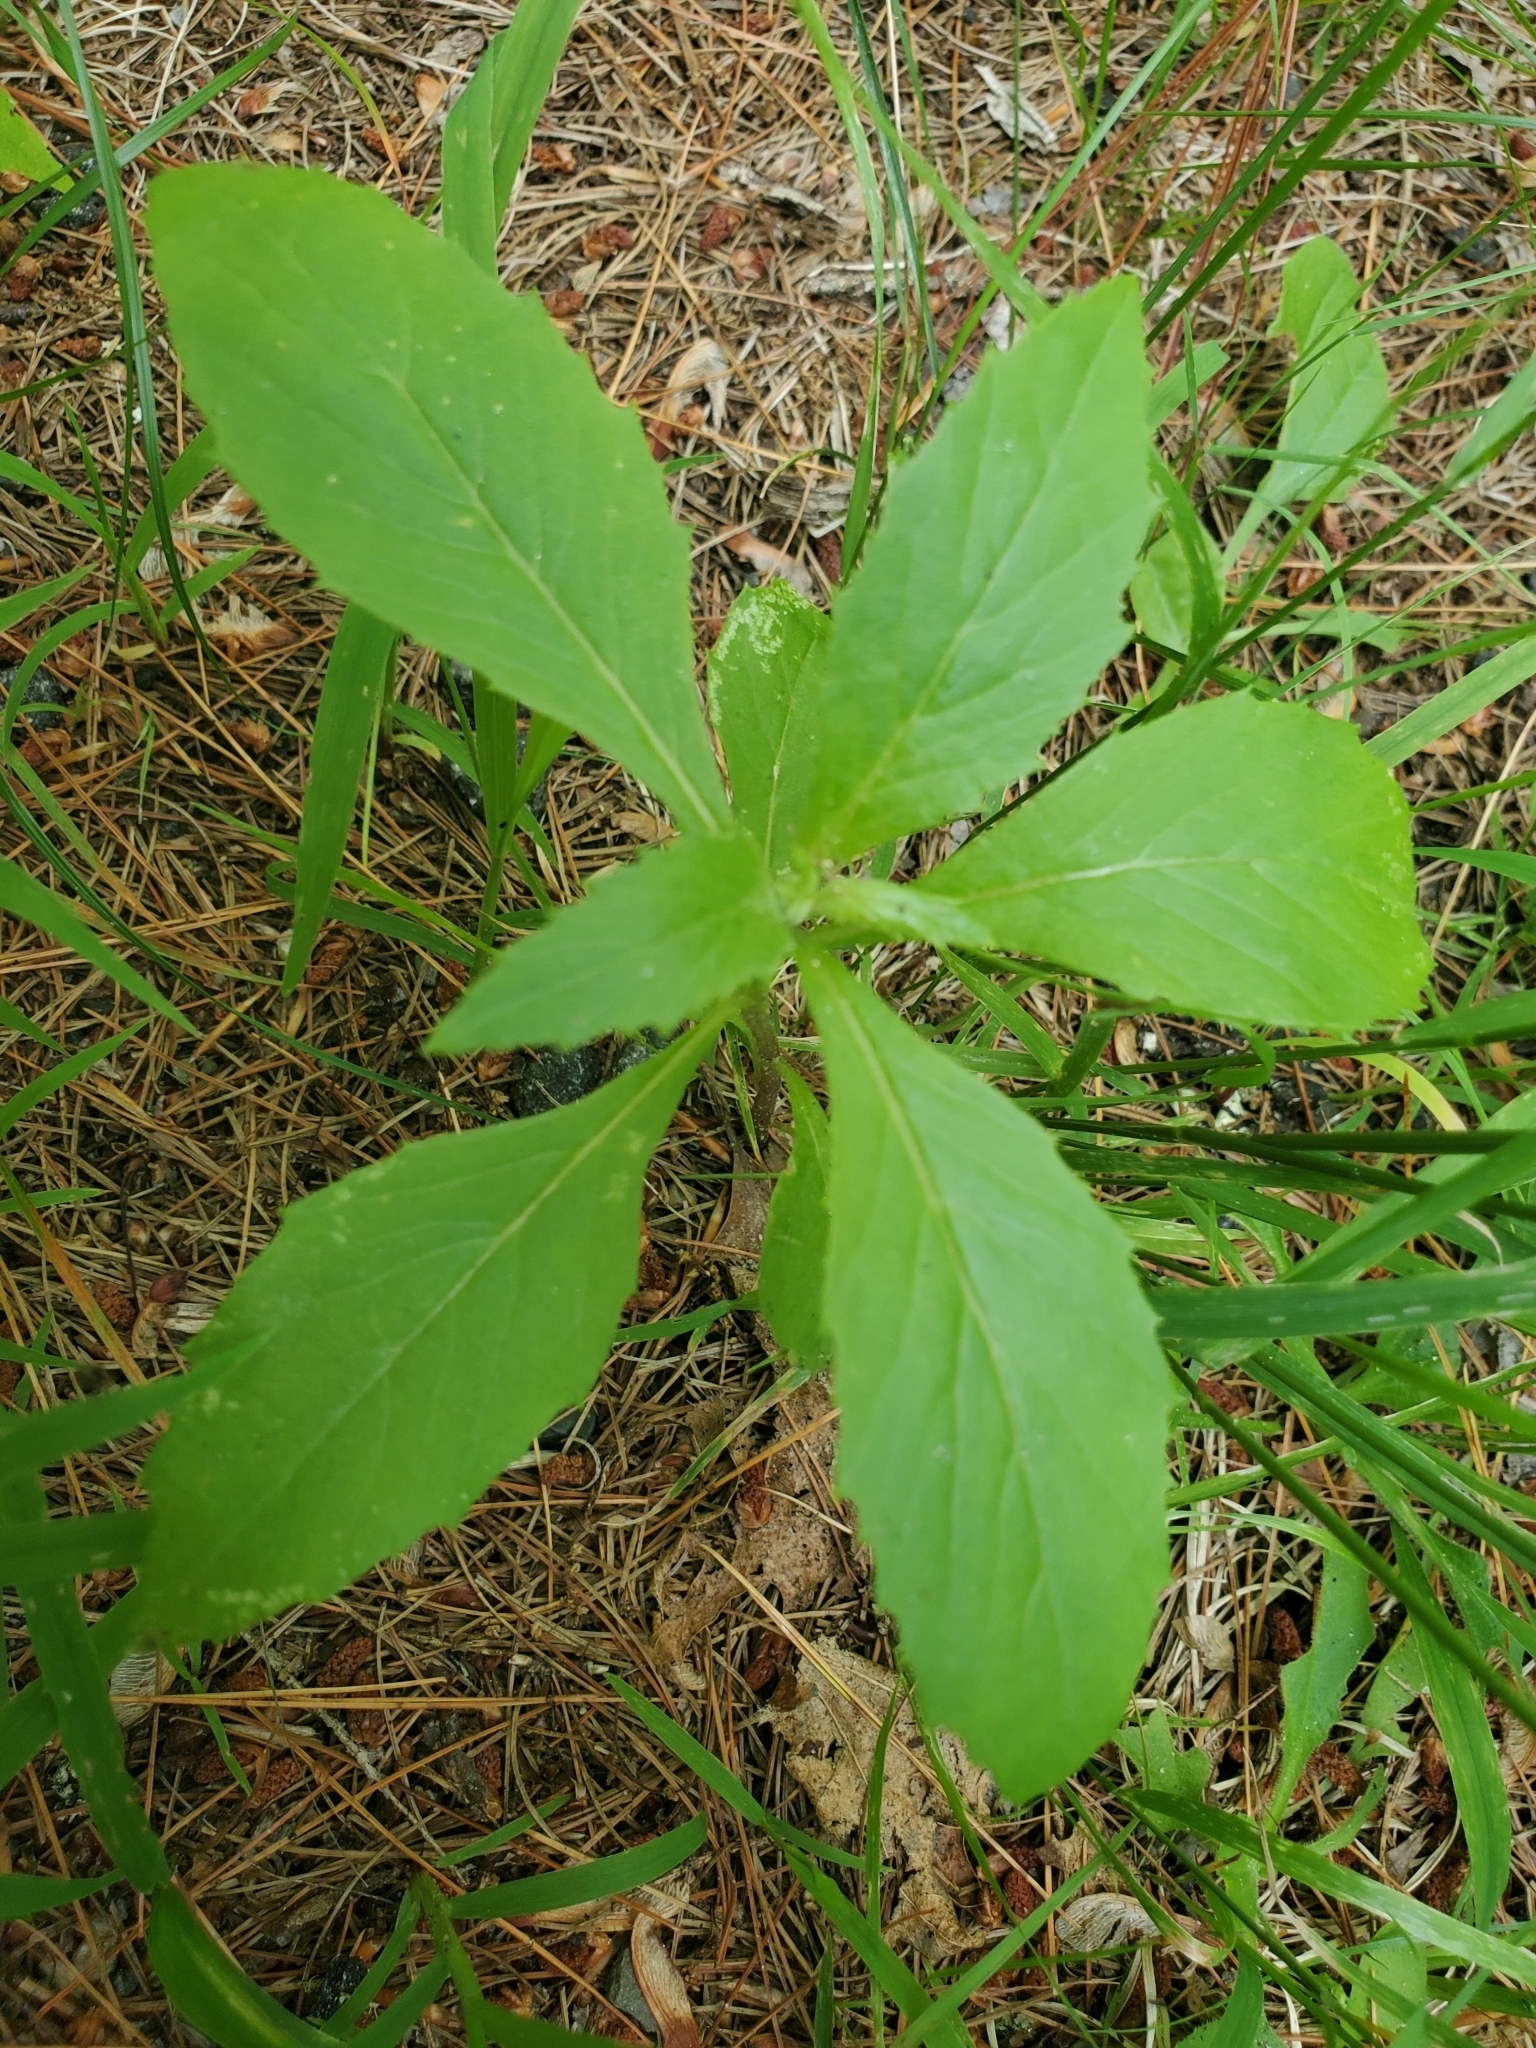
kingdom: Plantae
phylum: Tracheophyta
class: Magnoliopsida
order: Asterales
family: Asteraceae
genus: Erechtites
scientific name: Erechtites hieraciifolius
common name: American burnweed
